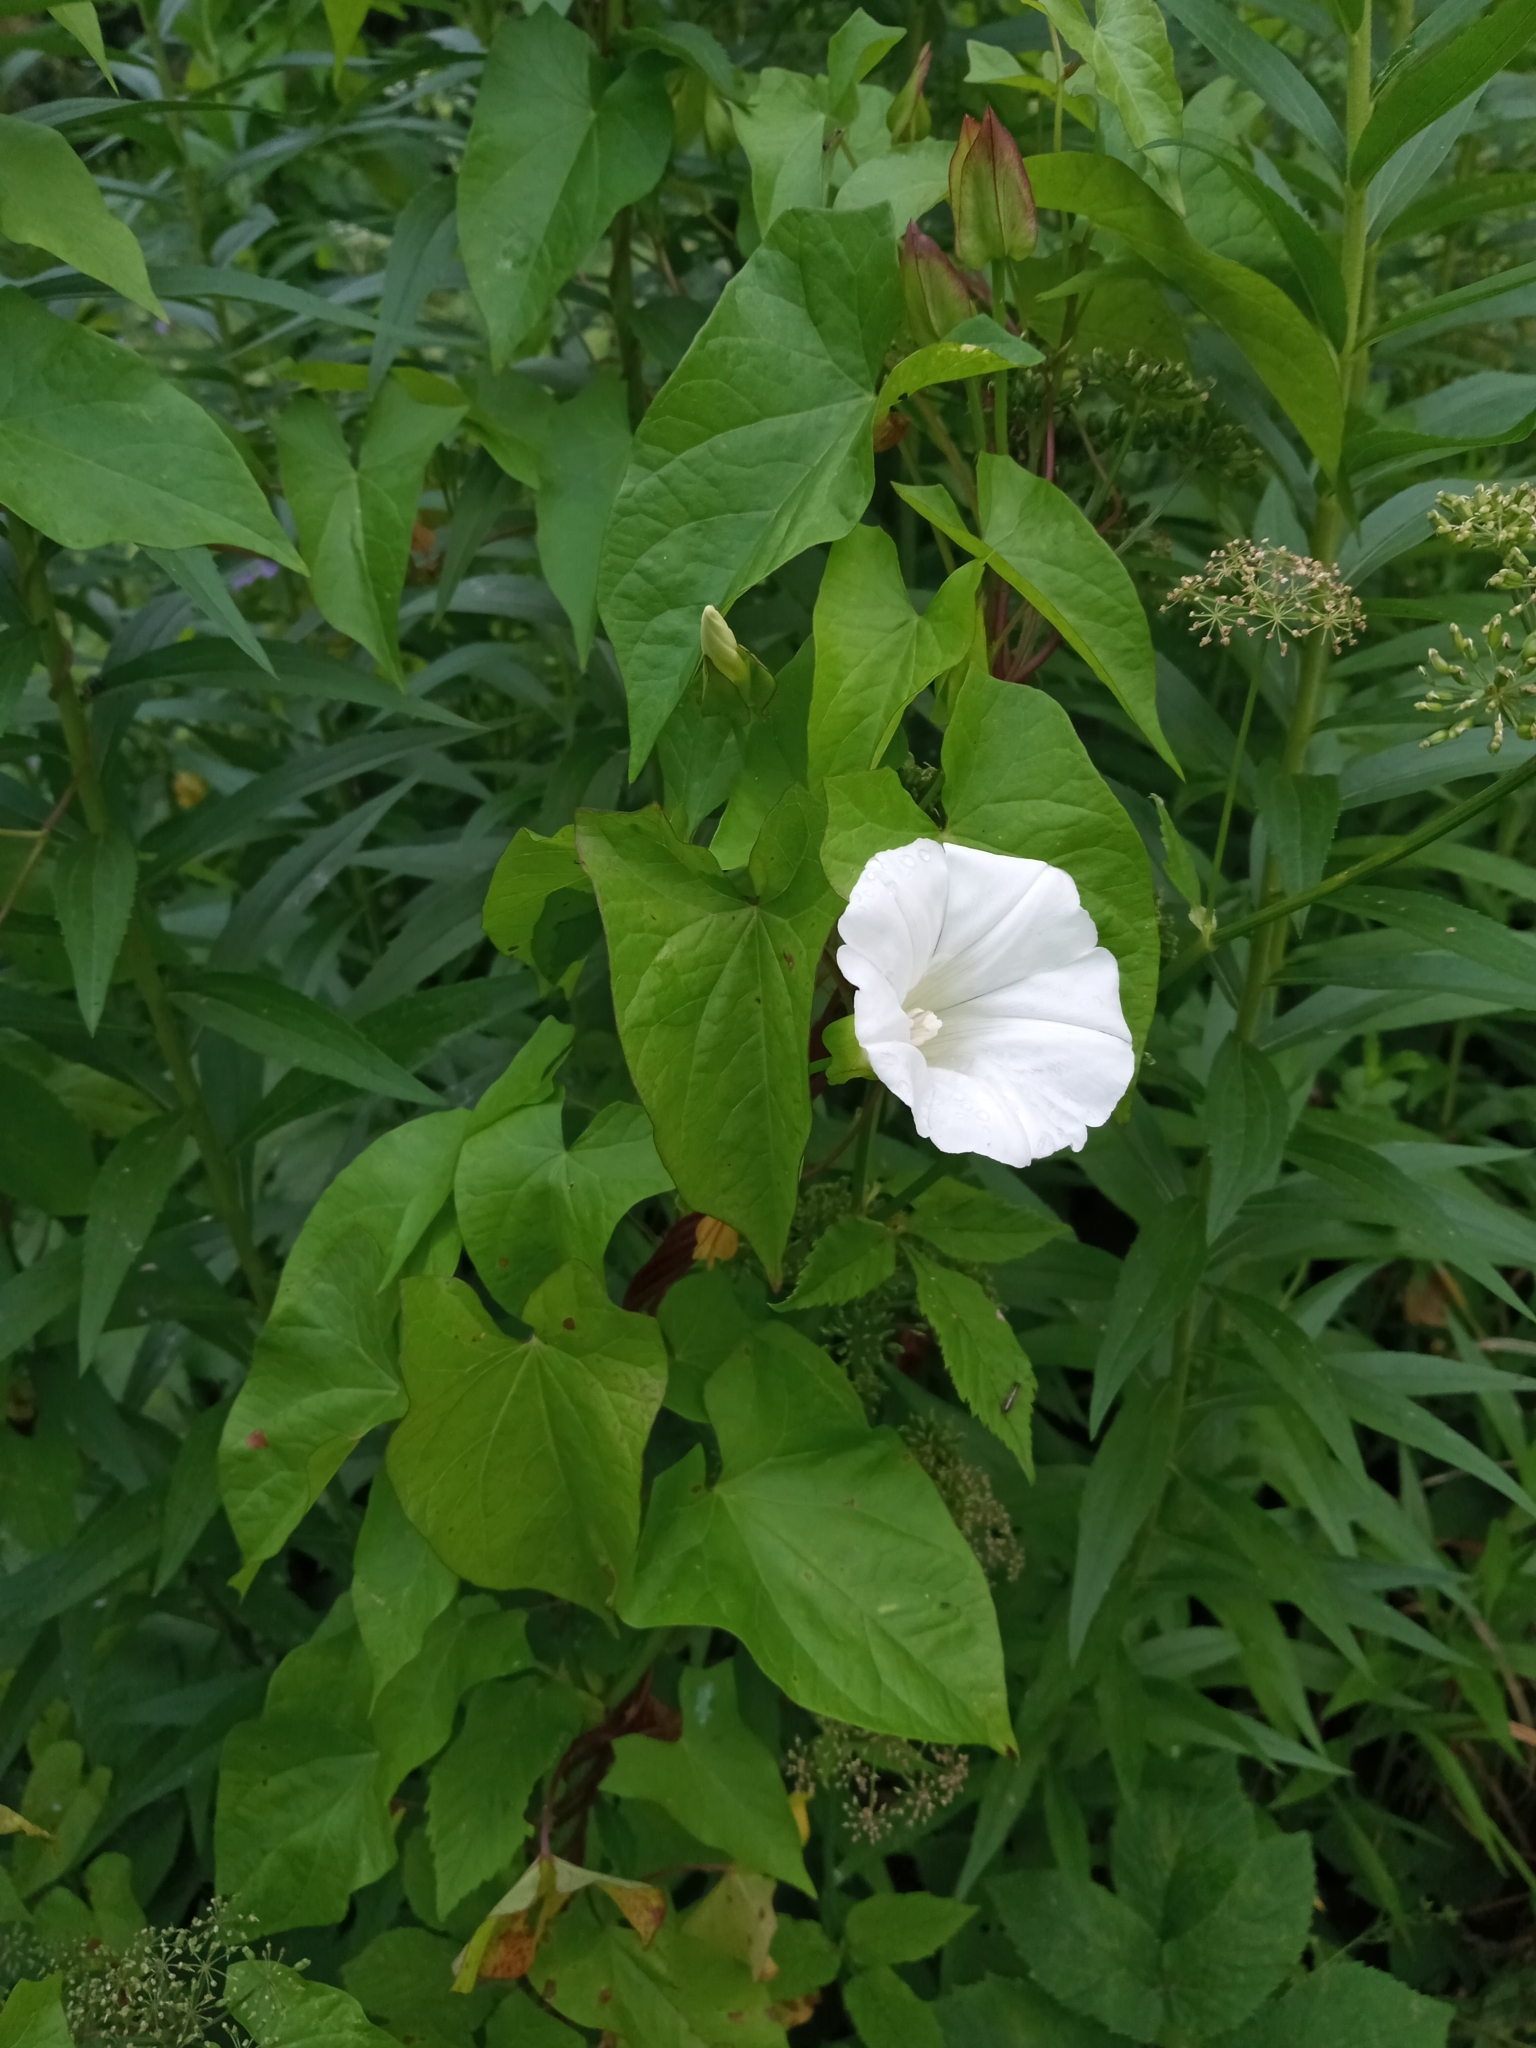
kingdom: Plantae
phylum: Tracheophyta
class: Magnoliopsida
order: Solanales
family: Convolvulaceae
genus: Calystegia
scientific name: Calystegia sepium
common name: Hedge bindweed
